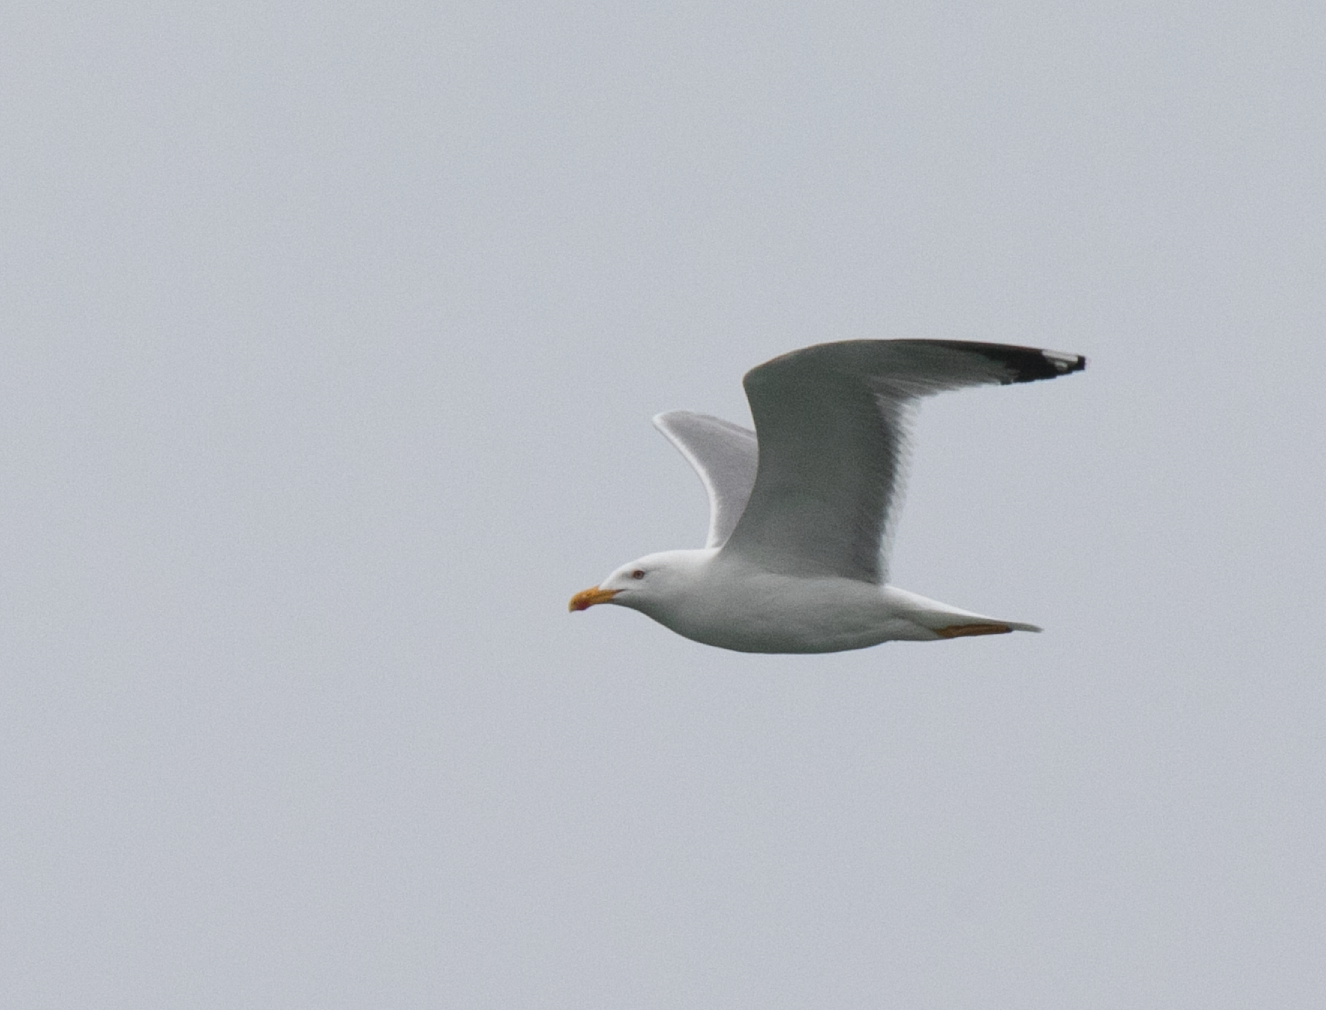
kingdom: Animalia
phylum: Chordata
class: Aves
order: Charadriiformes
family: Laridae
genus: Larus
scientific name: Larus michahellis
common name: Yellow-legged gull
